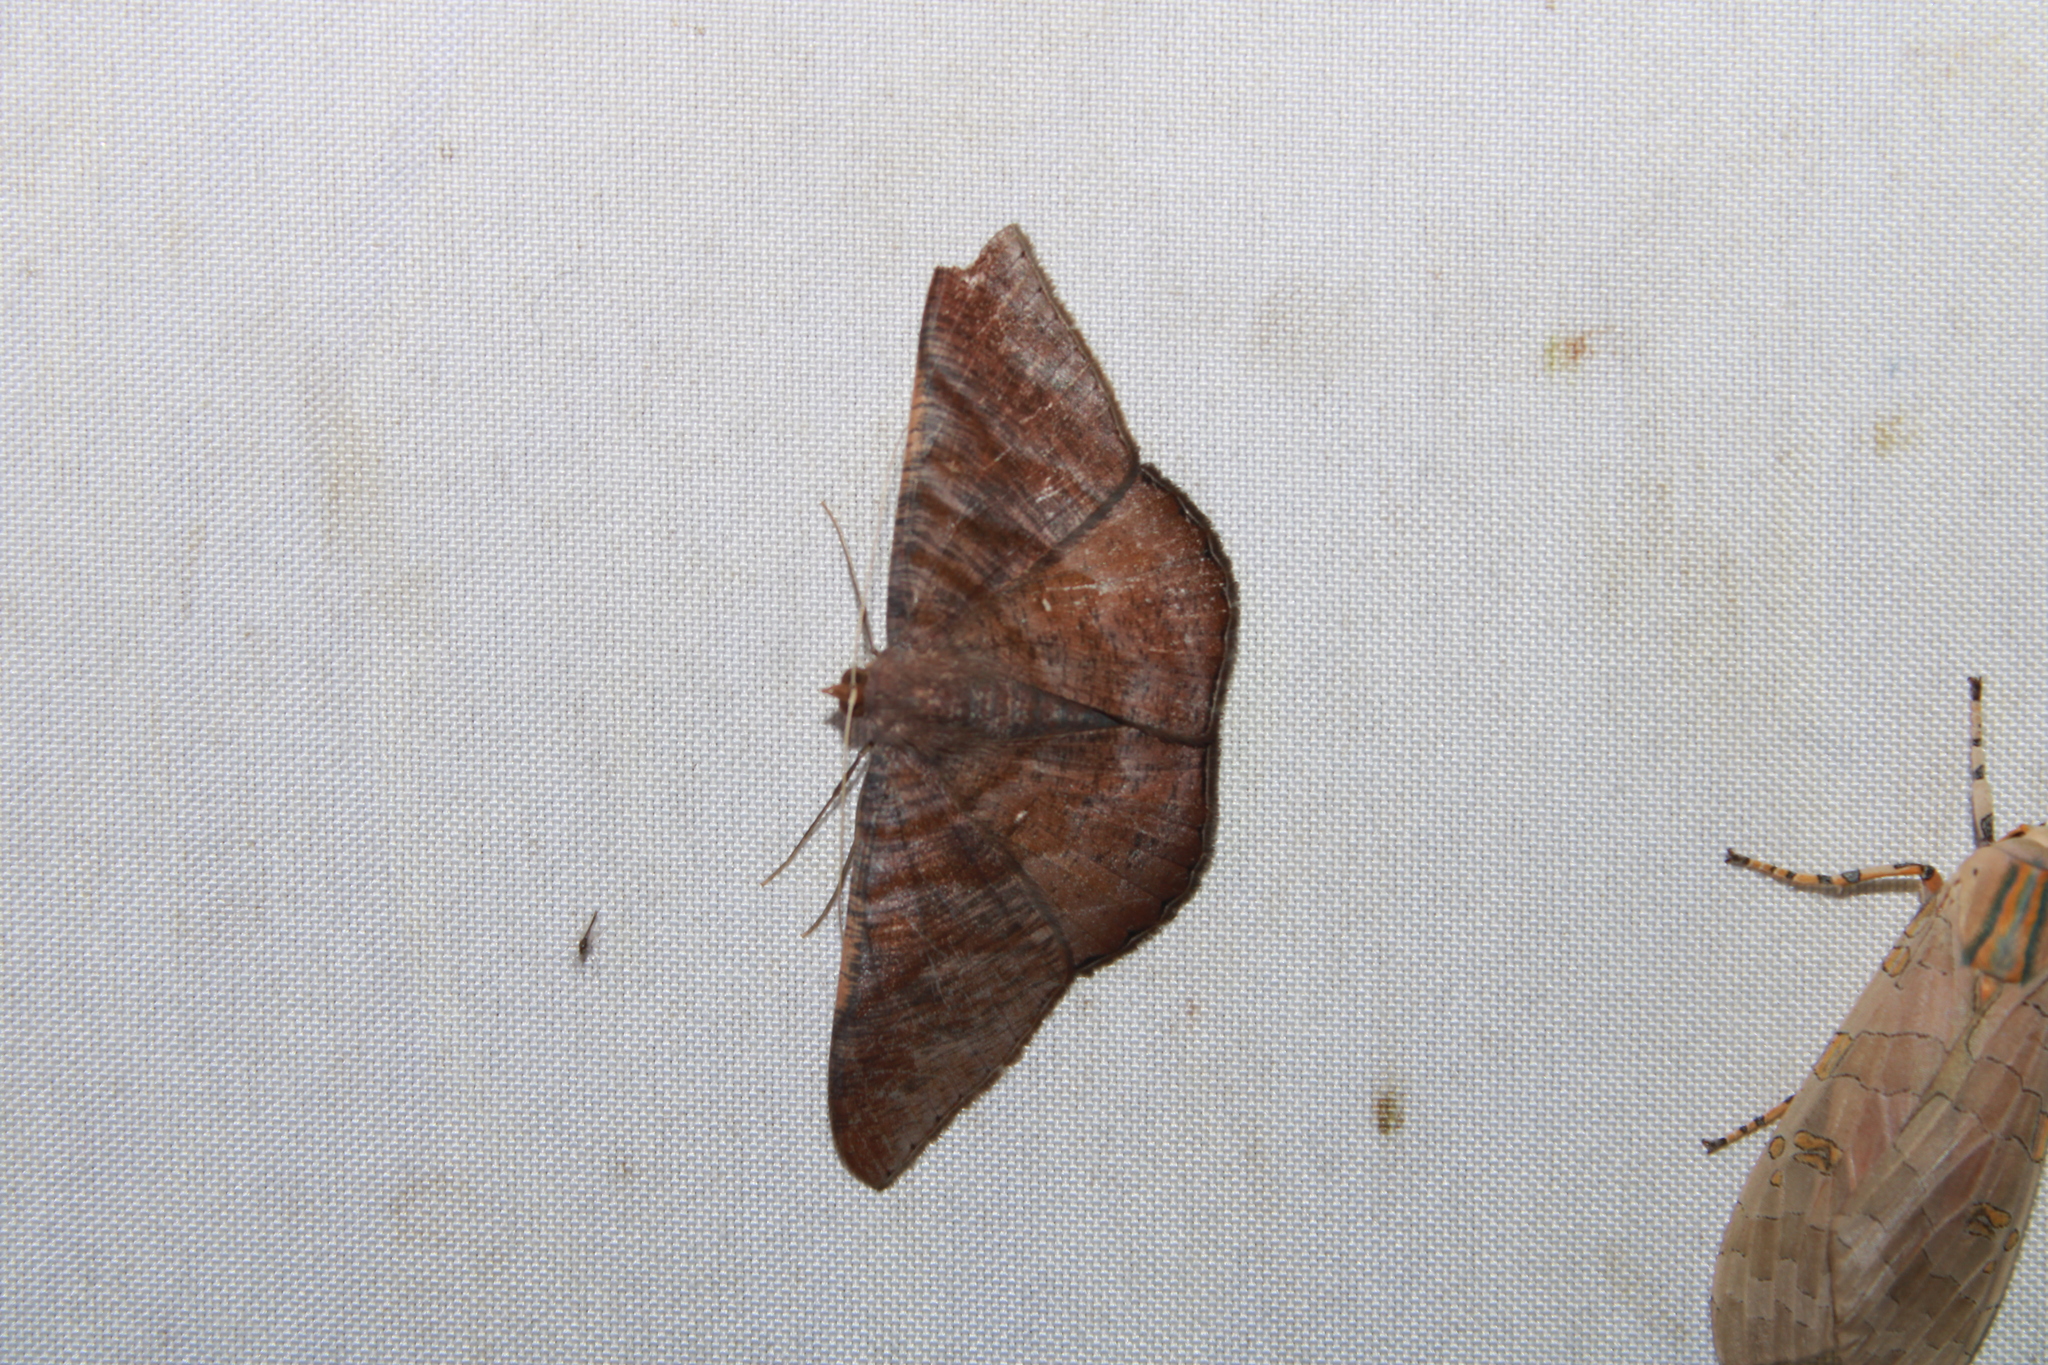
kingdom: Animalia
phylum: Arthropoda
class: Insecta
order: Lepidoptera
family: Geometridae
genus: Sphacelodes
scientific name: Sphacelodes vulneraria
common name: Looper moth
